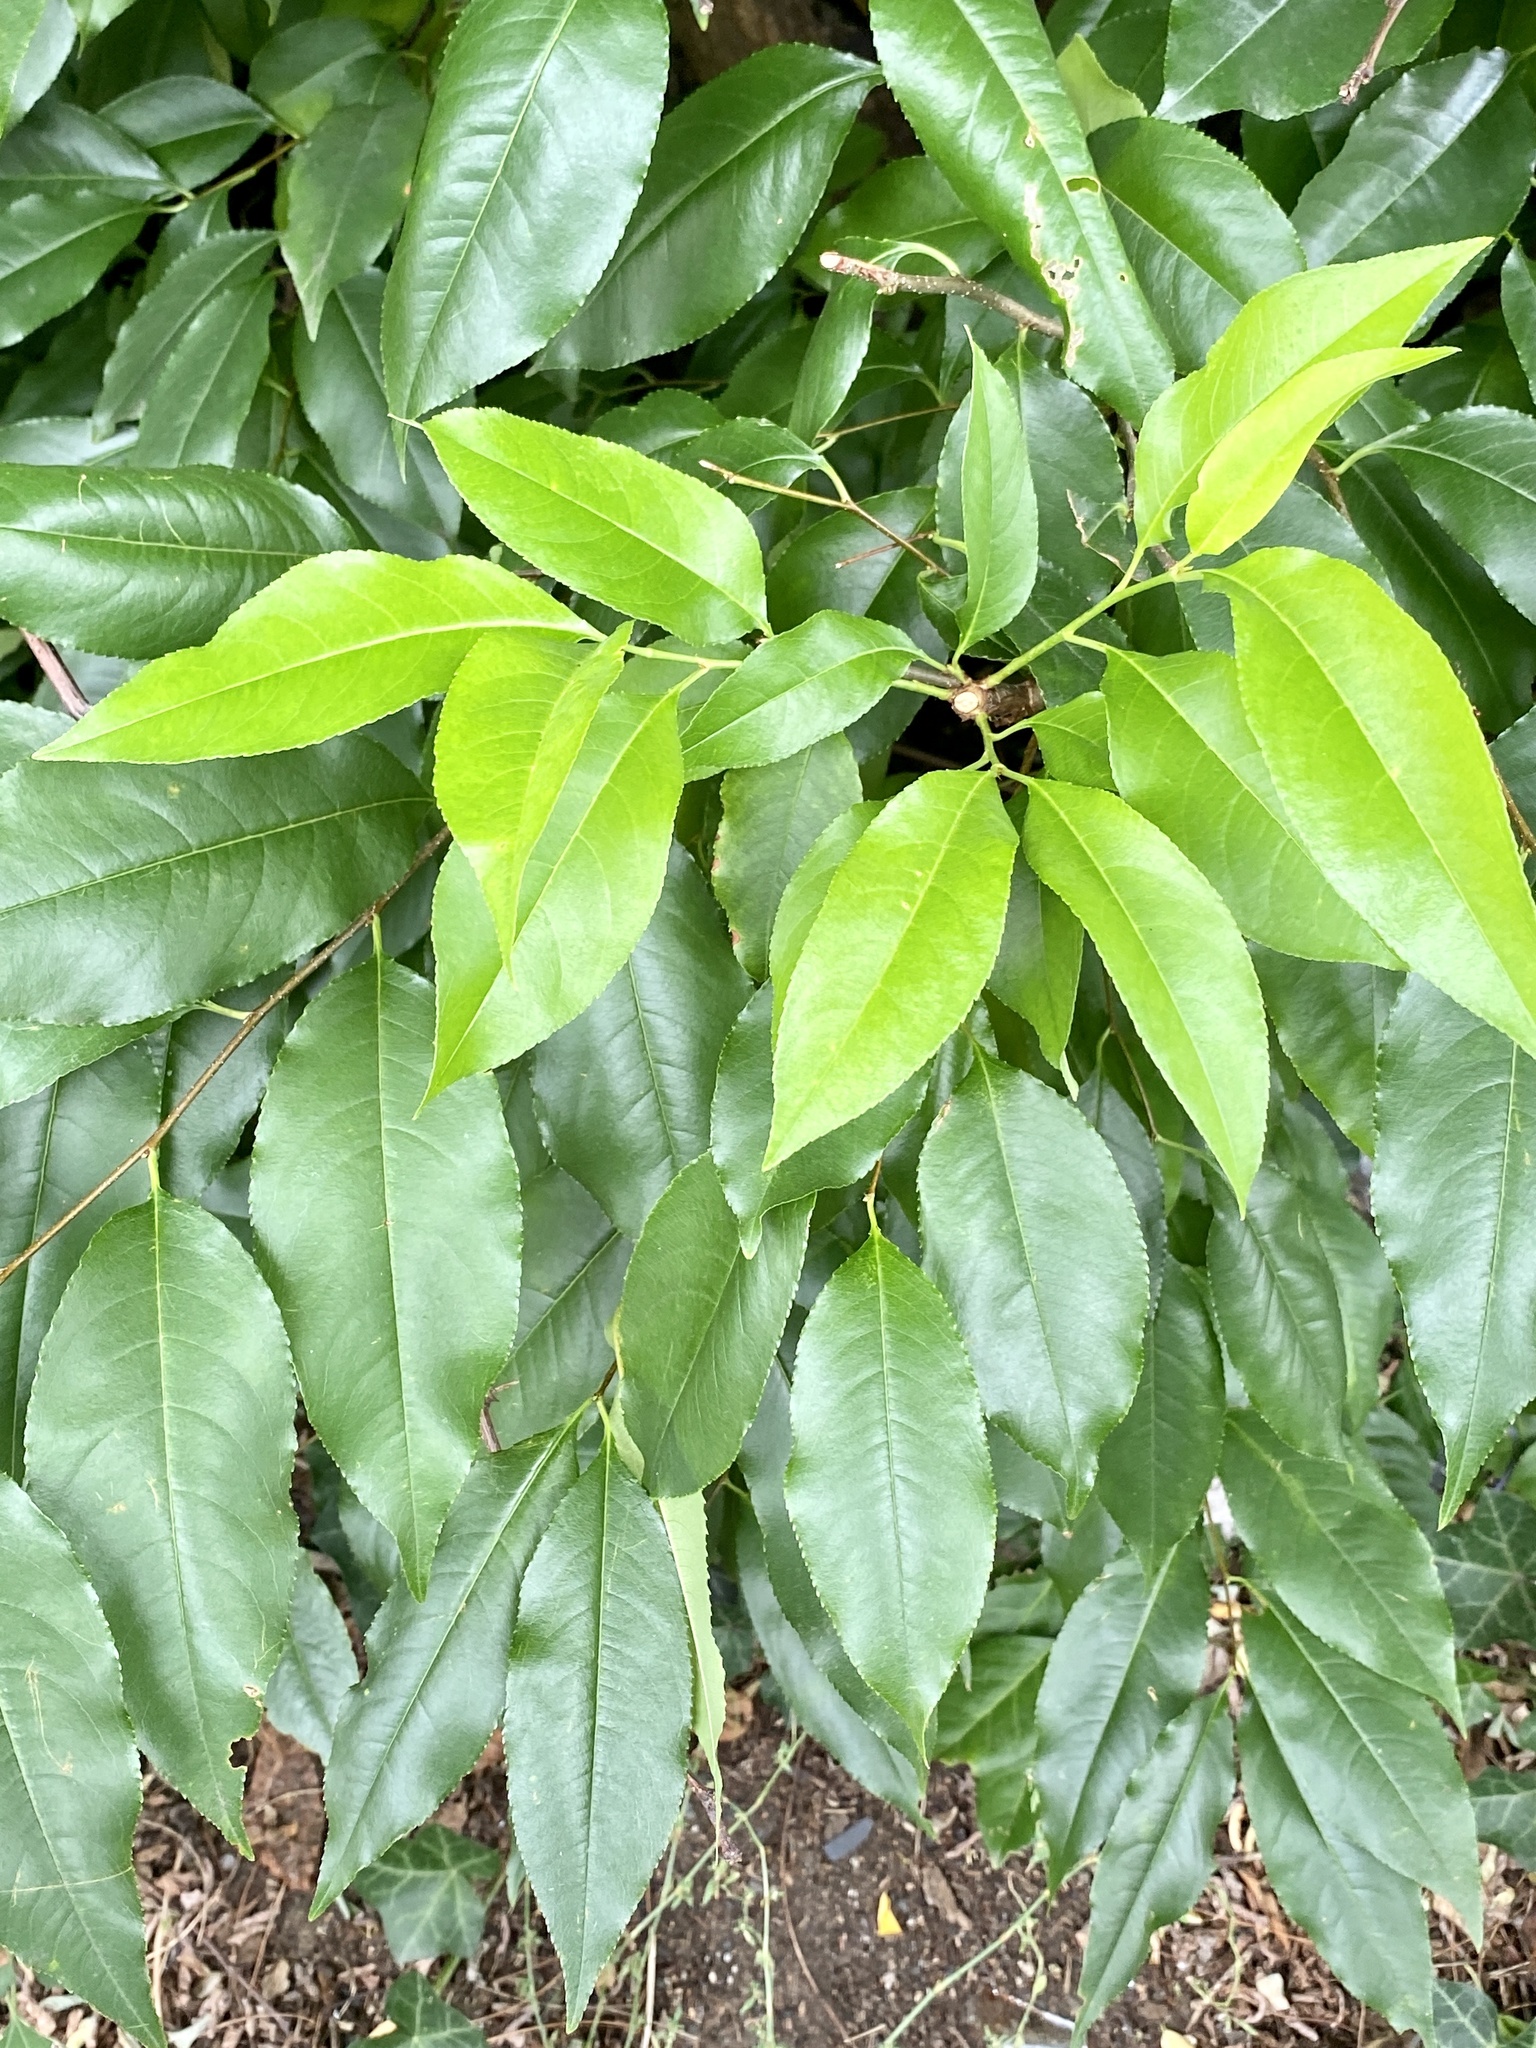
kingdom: Plantae
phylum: Tracheophyta
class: Magnoliopsida
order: Rosales
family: Rosaceae
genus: Prunus
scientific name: Prunus serotina
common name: Black cherry
